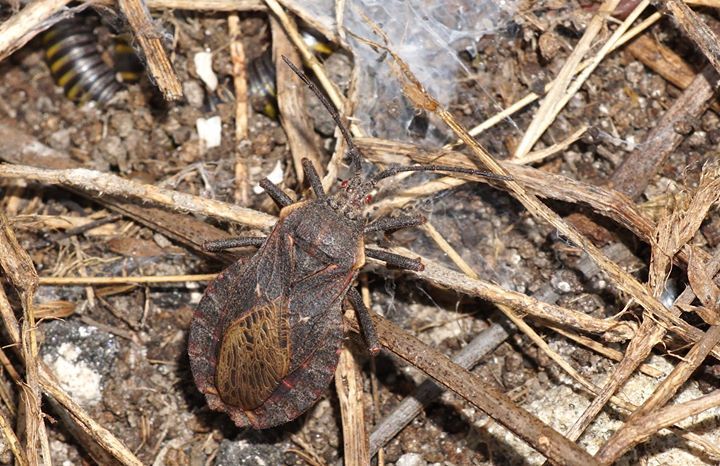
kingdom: Animalia
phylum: Arthropoda
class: Insecta
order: Hemiptera
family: Coreidae
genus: Spartocera
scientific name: Spartocera batatas
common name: Giant sweetpotato bug
